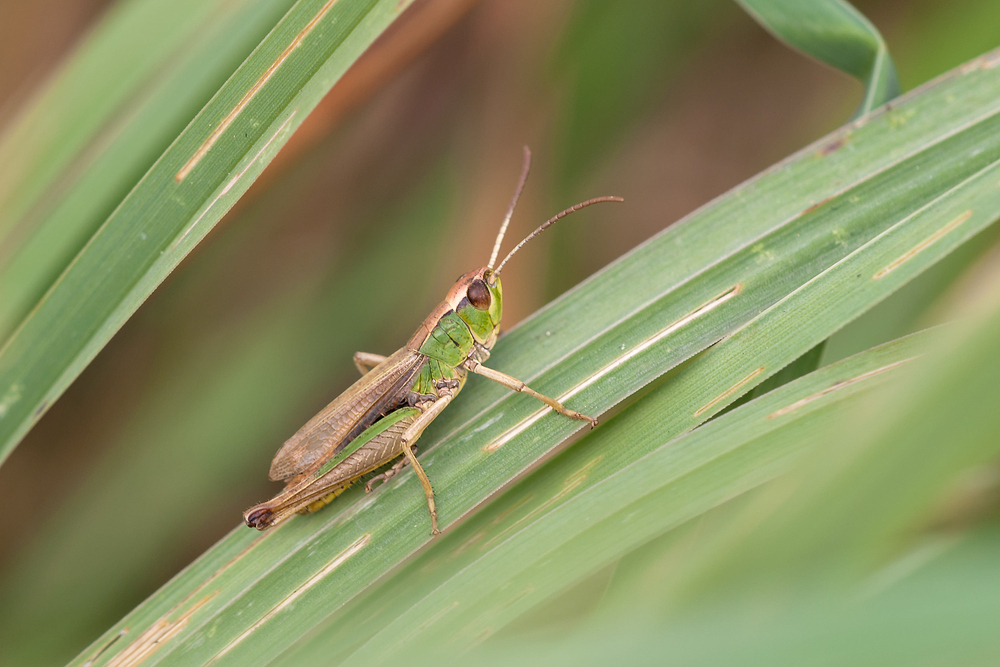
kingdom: Animalia
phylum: Arthropoda
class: Insecta
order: Orthoptera
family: Acrididae
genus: Pseudochorthippus
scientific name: Pseudochorthippus parallelus
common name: Meadow grasshopper
